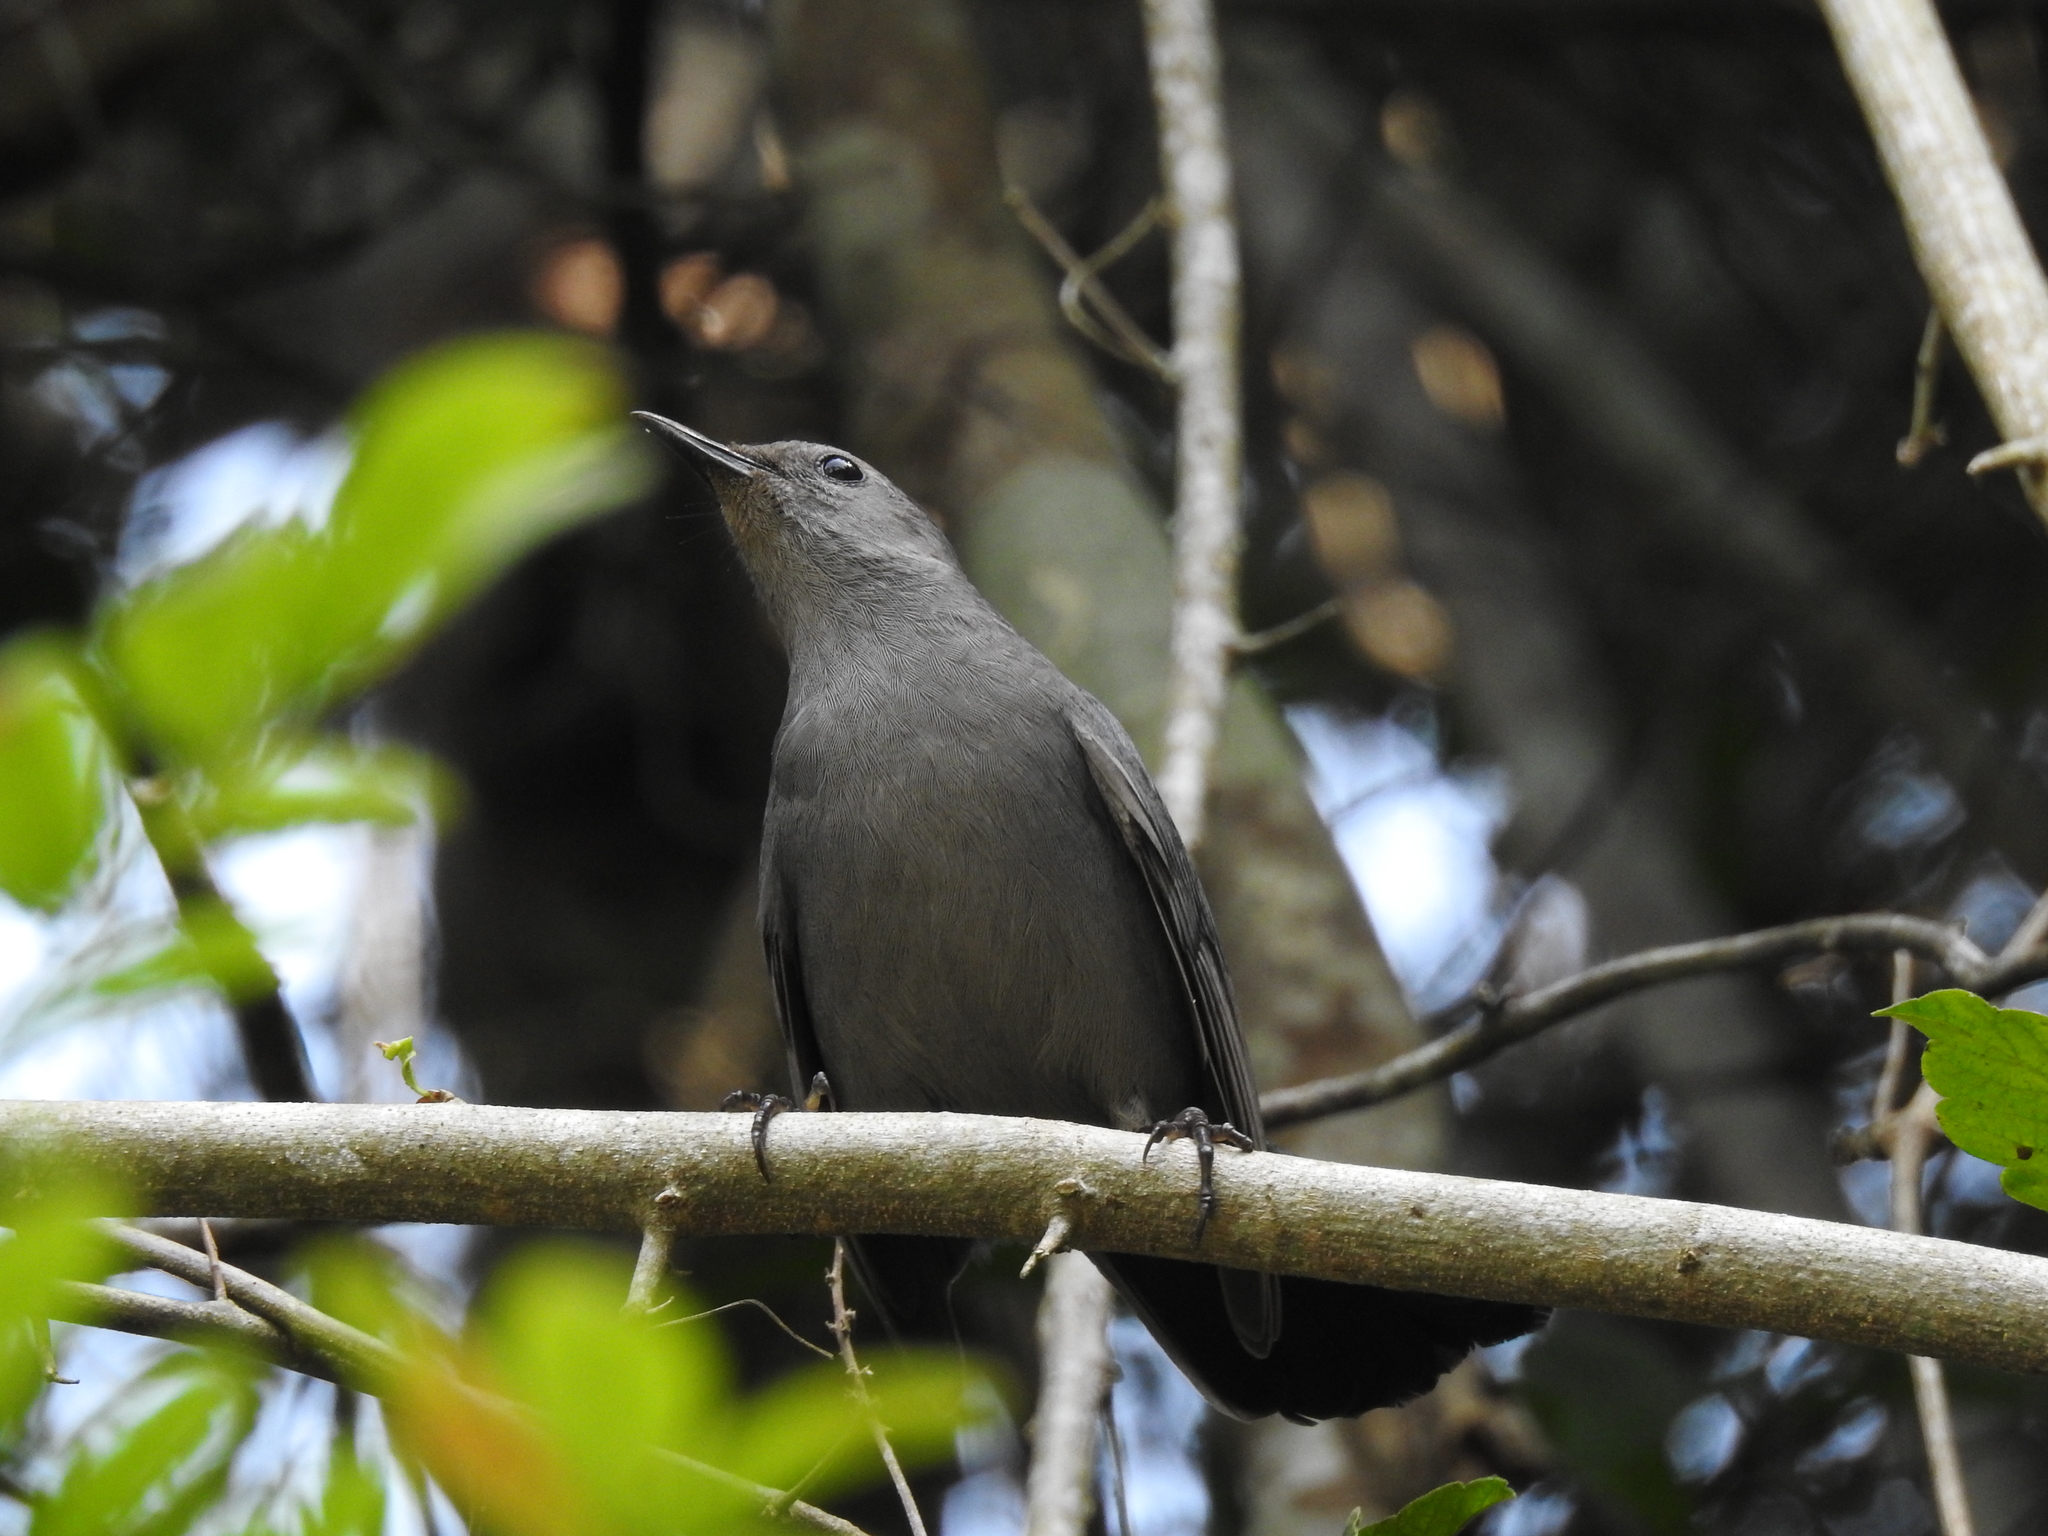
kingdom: Animalia
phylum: Chordata
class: Aves
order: Passeriformes
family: Mimidae
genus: Dumetella
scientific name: Dumetella carolinensis
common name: Gray catbird
